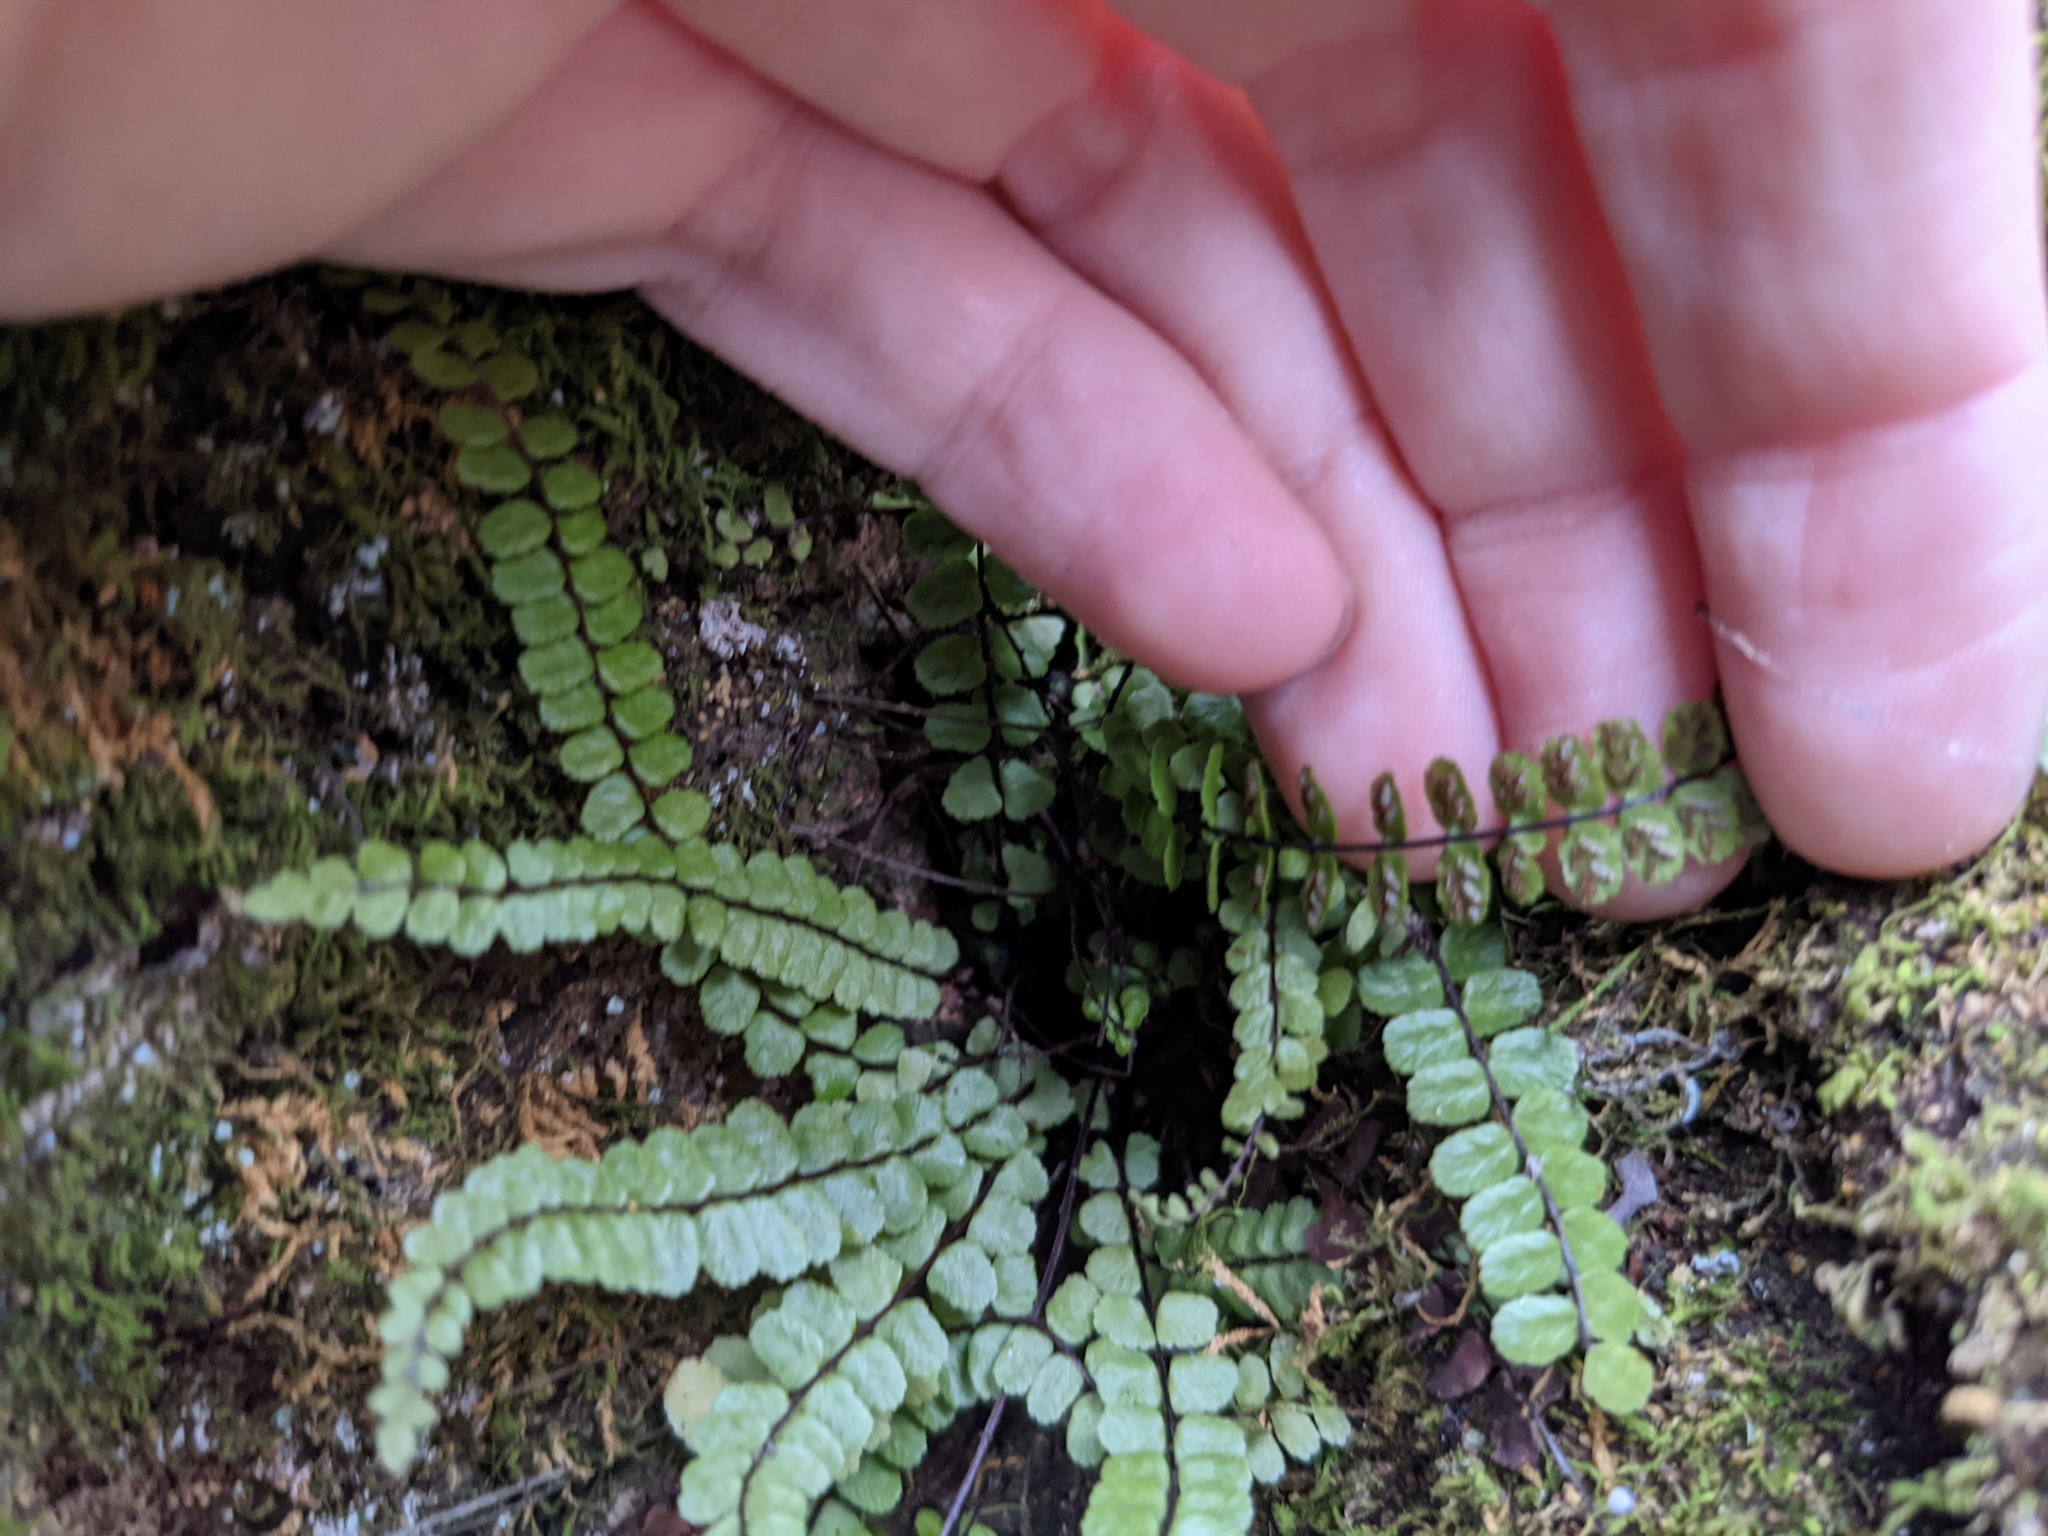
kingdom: Plantae
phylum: Tracheophyta
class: Polypodiopsida
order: Polypodiales
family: Aspleniaceae
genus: Asplenium
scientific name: Asplenium trichomanes
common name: Maidenhair spleenwort
